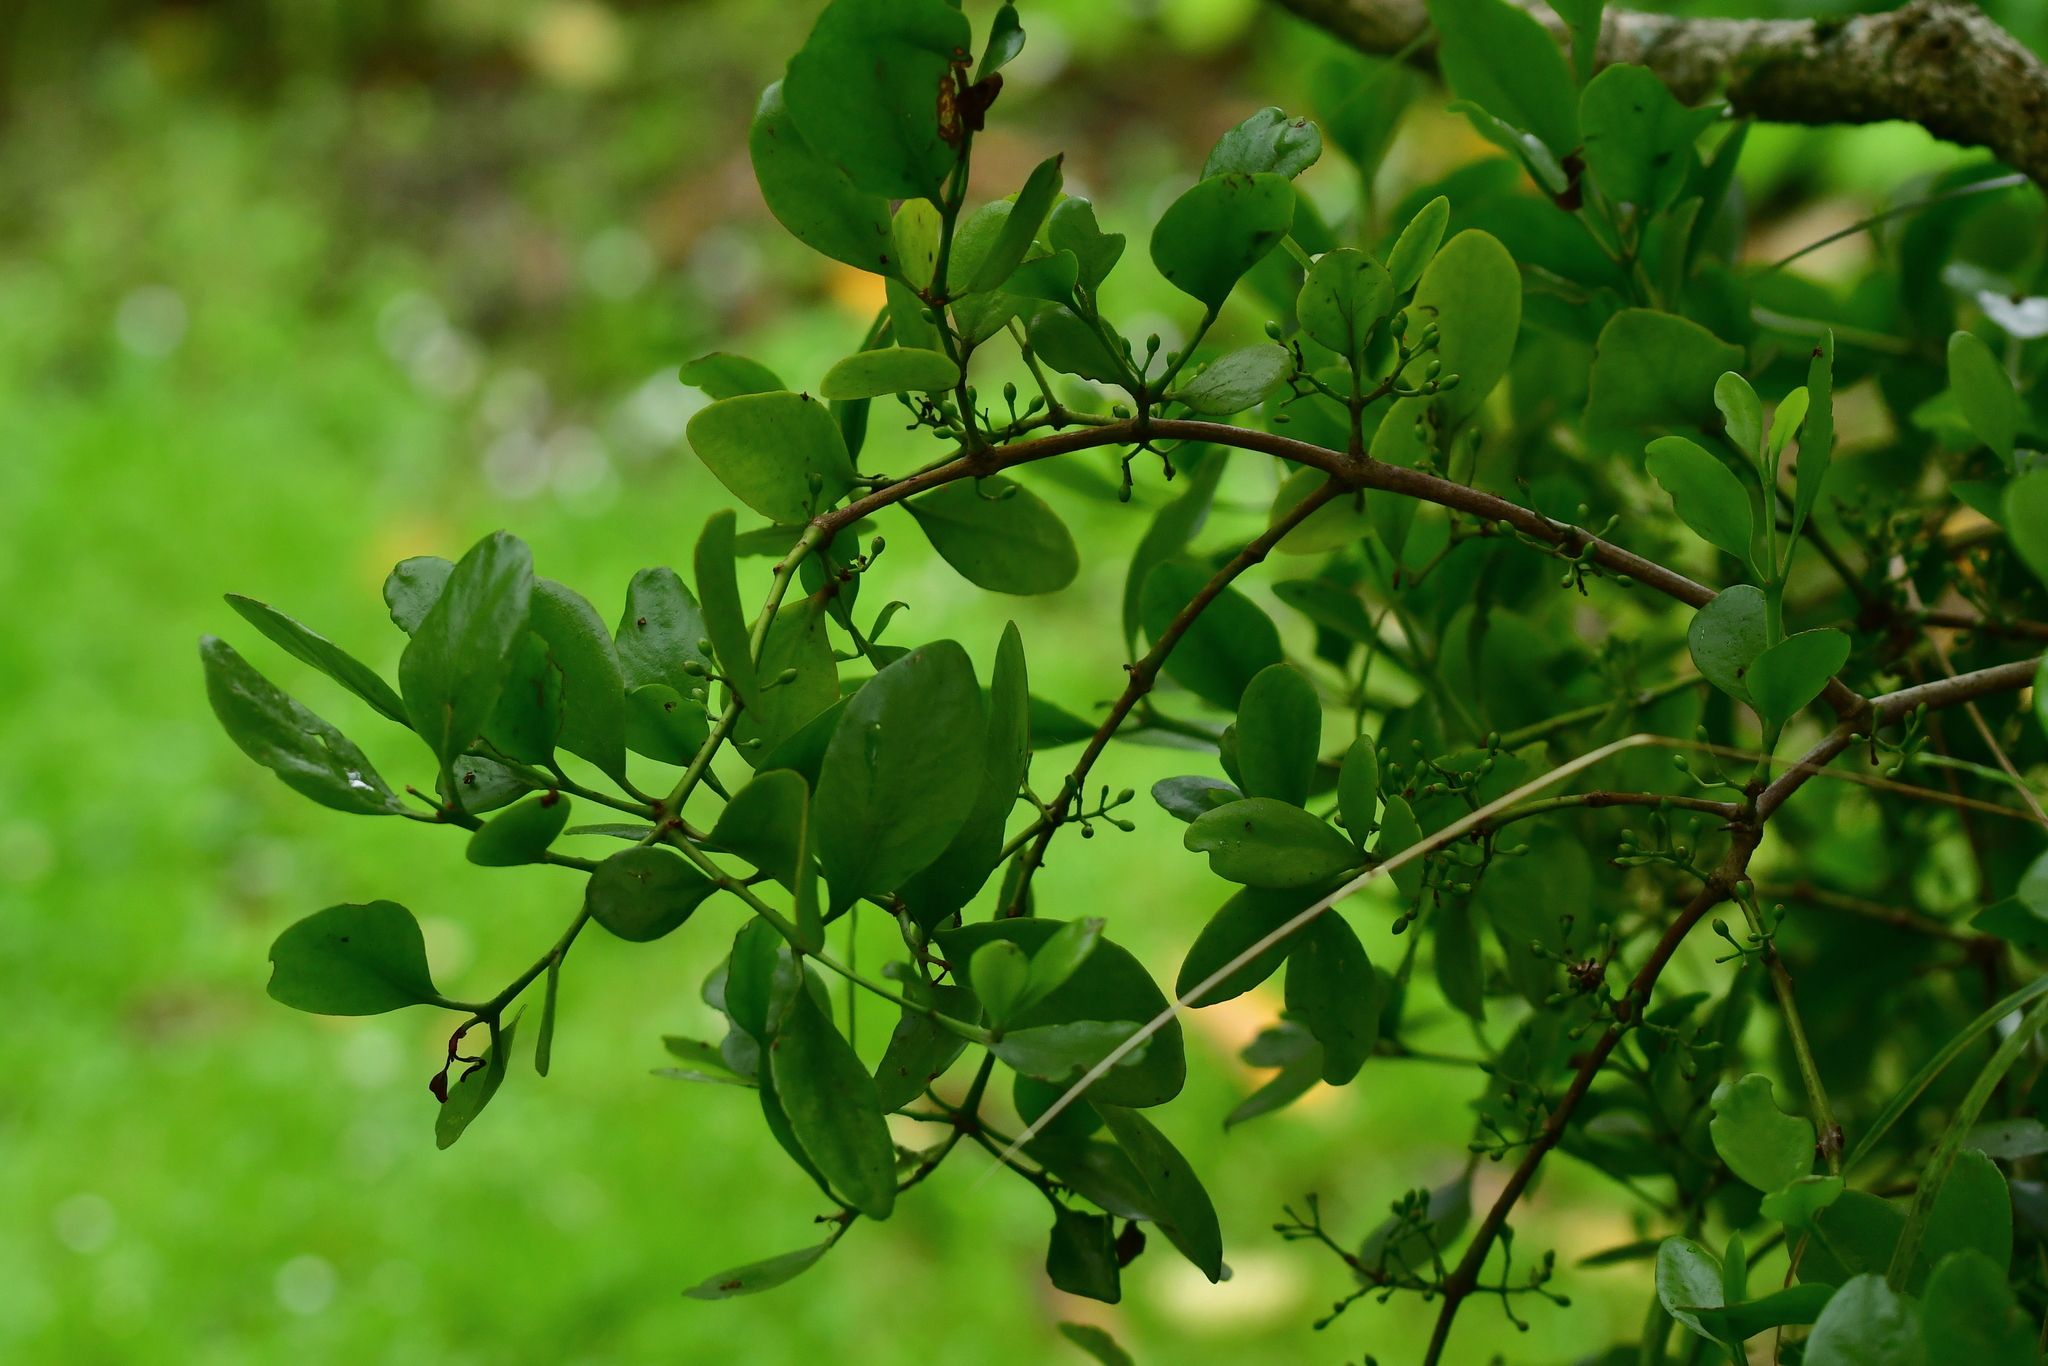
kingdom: Plantae
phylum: Tracheophyta
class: Magnoliopsida
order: Santalales
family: Loranthaceae
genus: Ileostylus
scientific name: Ileostylus micranthus
